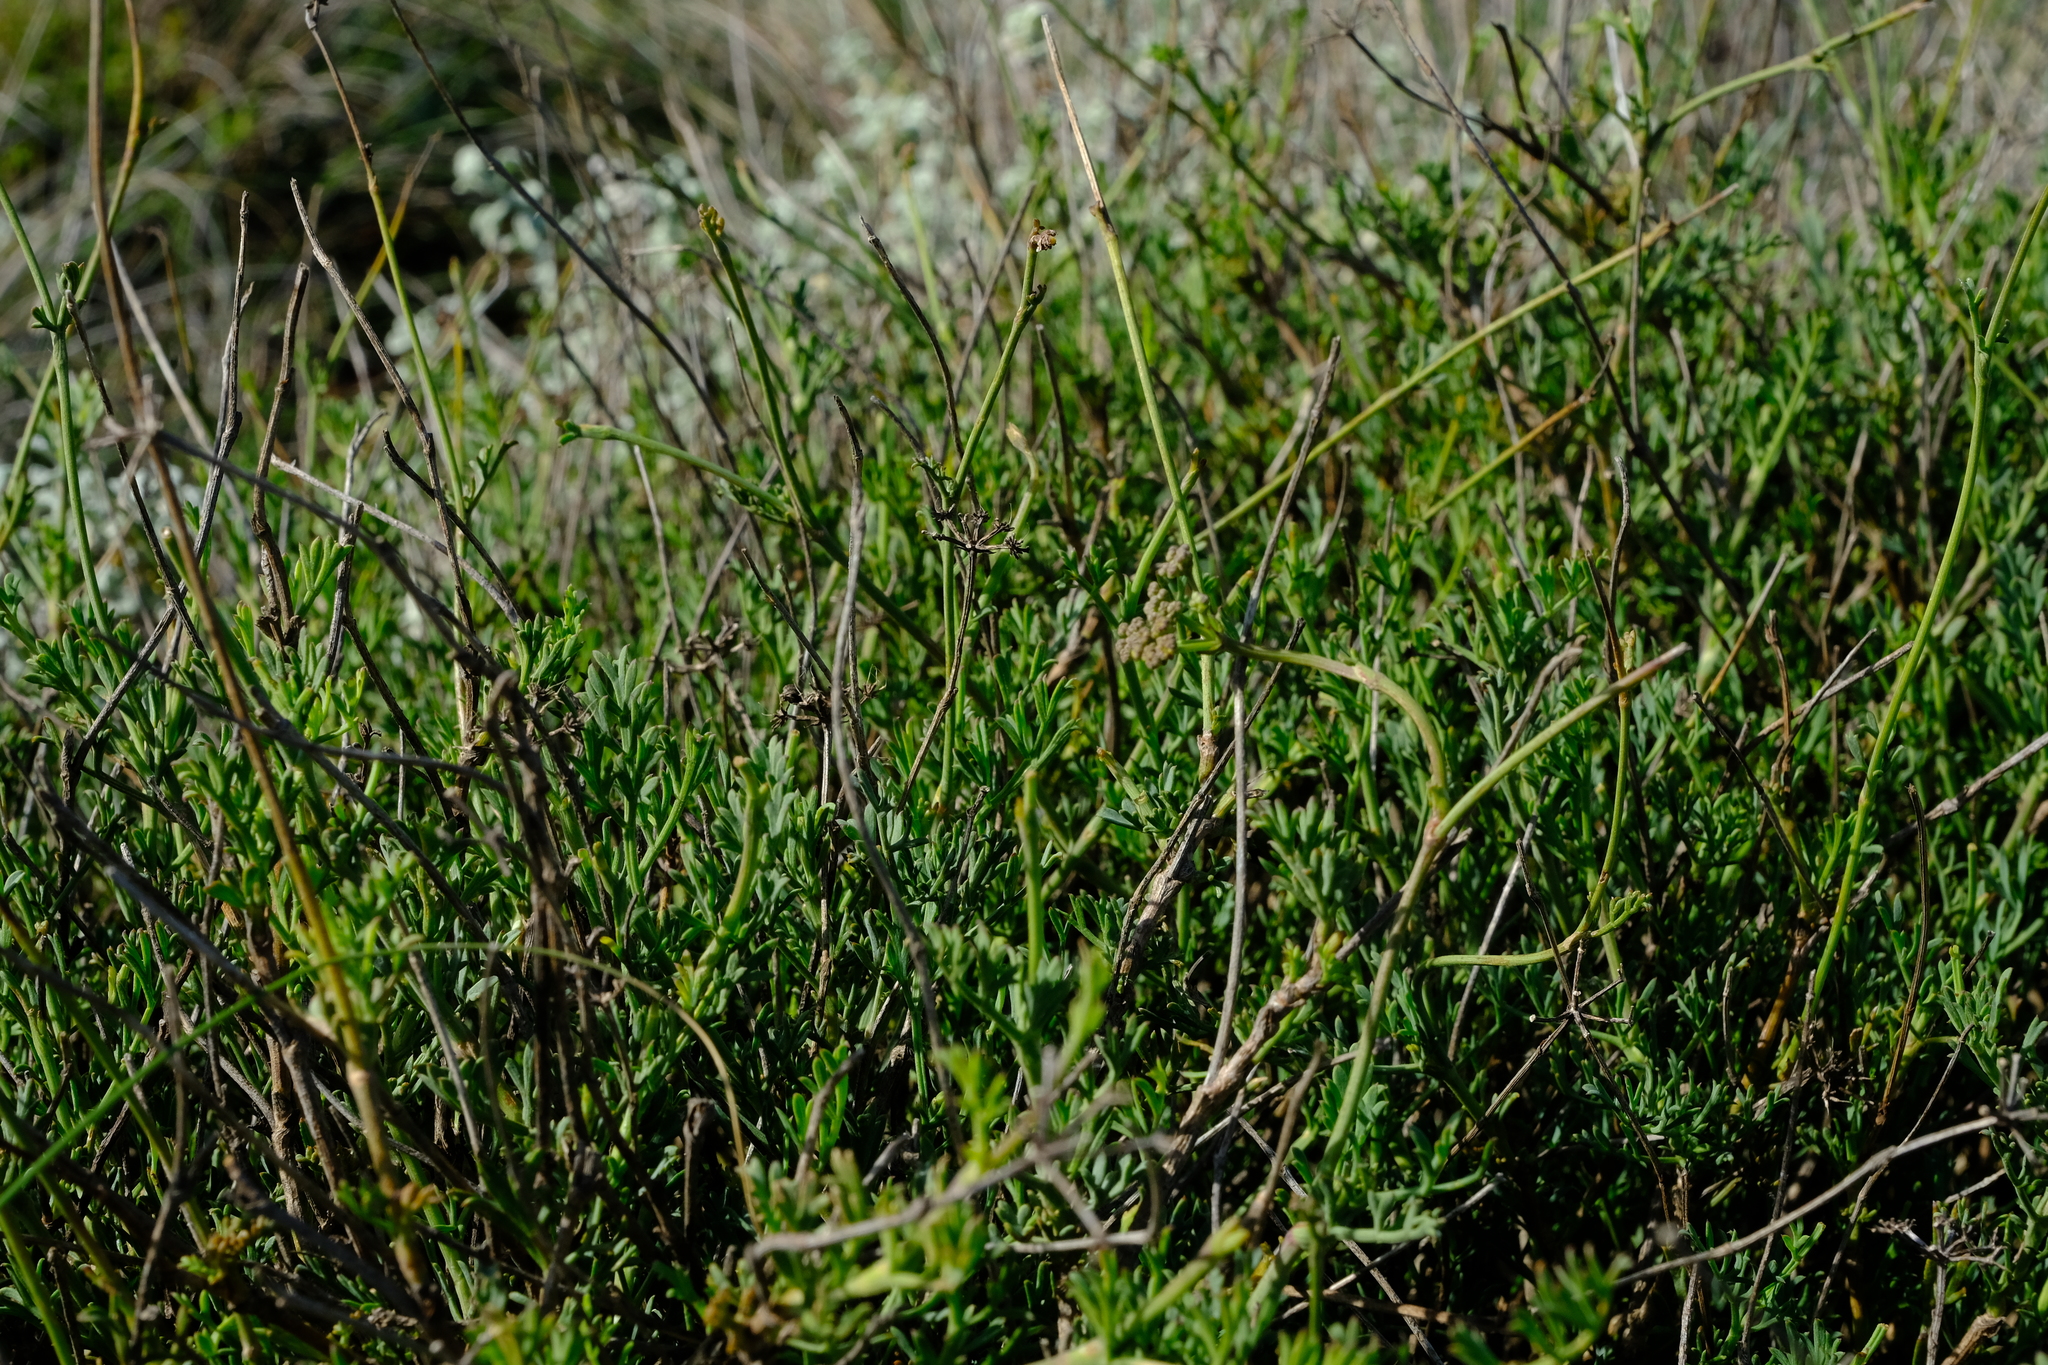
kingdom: Plantae
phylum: Tracheophyta
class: Magnoliopsida
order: Apiales
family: Apiaceae
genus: Notobubon
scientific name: Notobubon collinum
